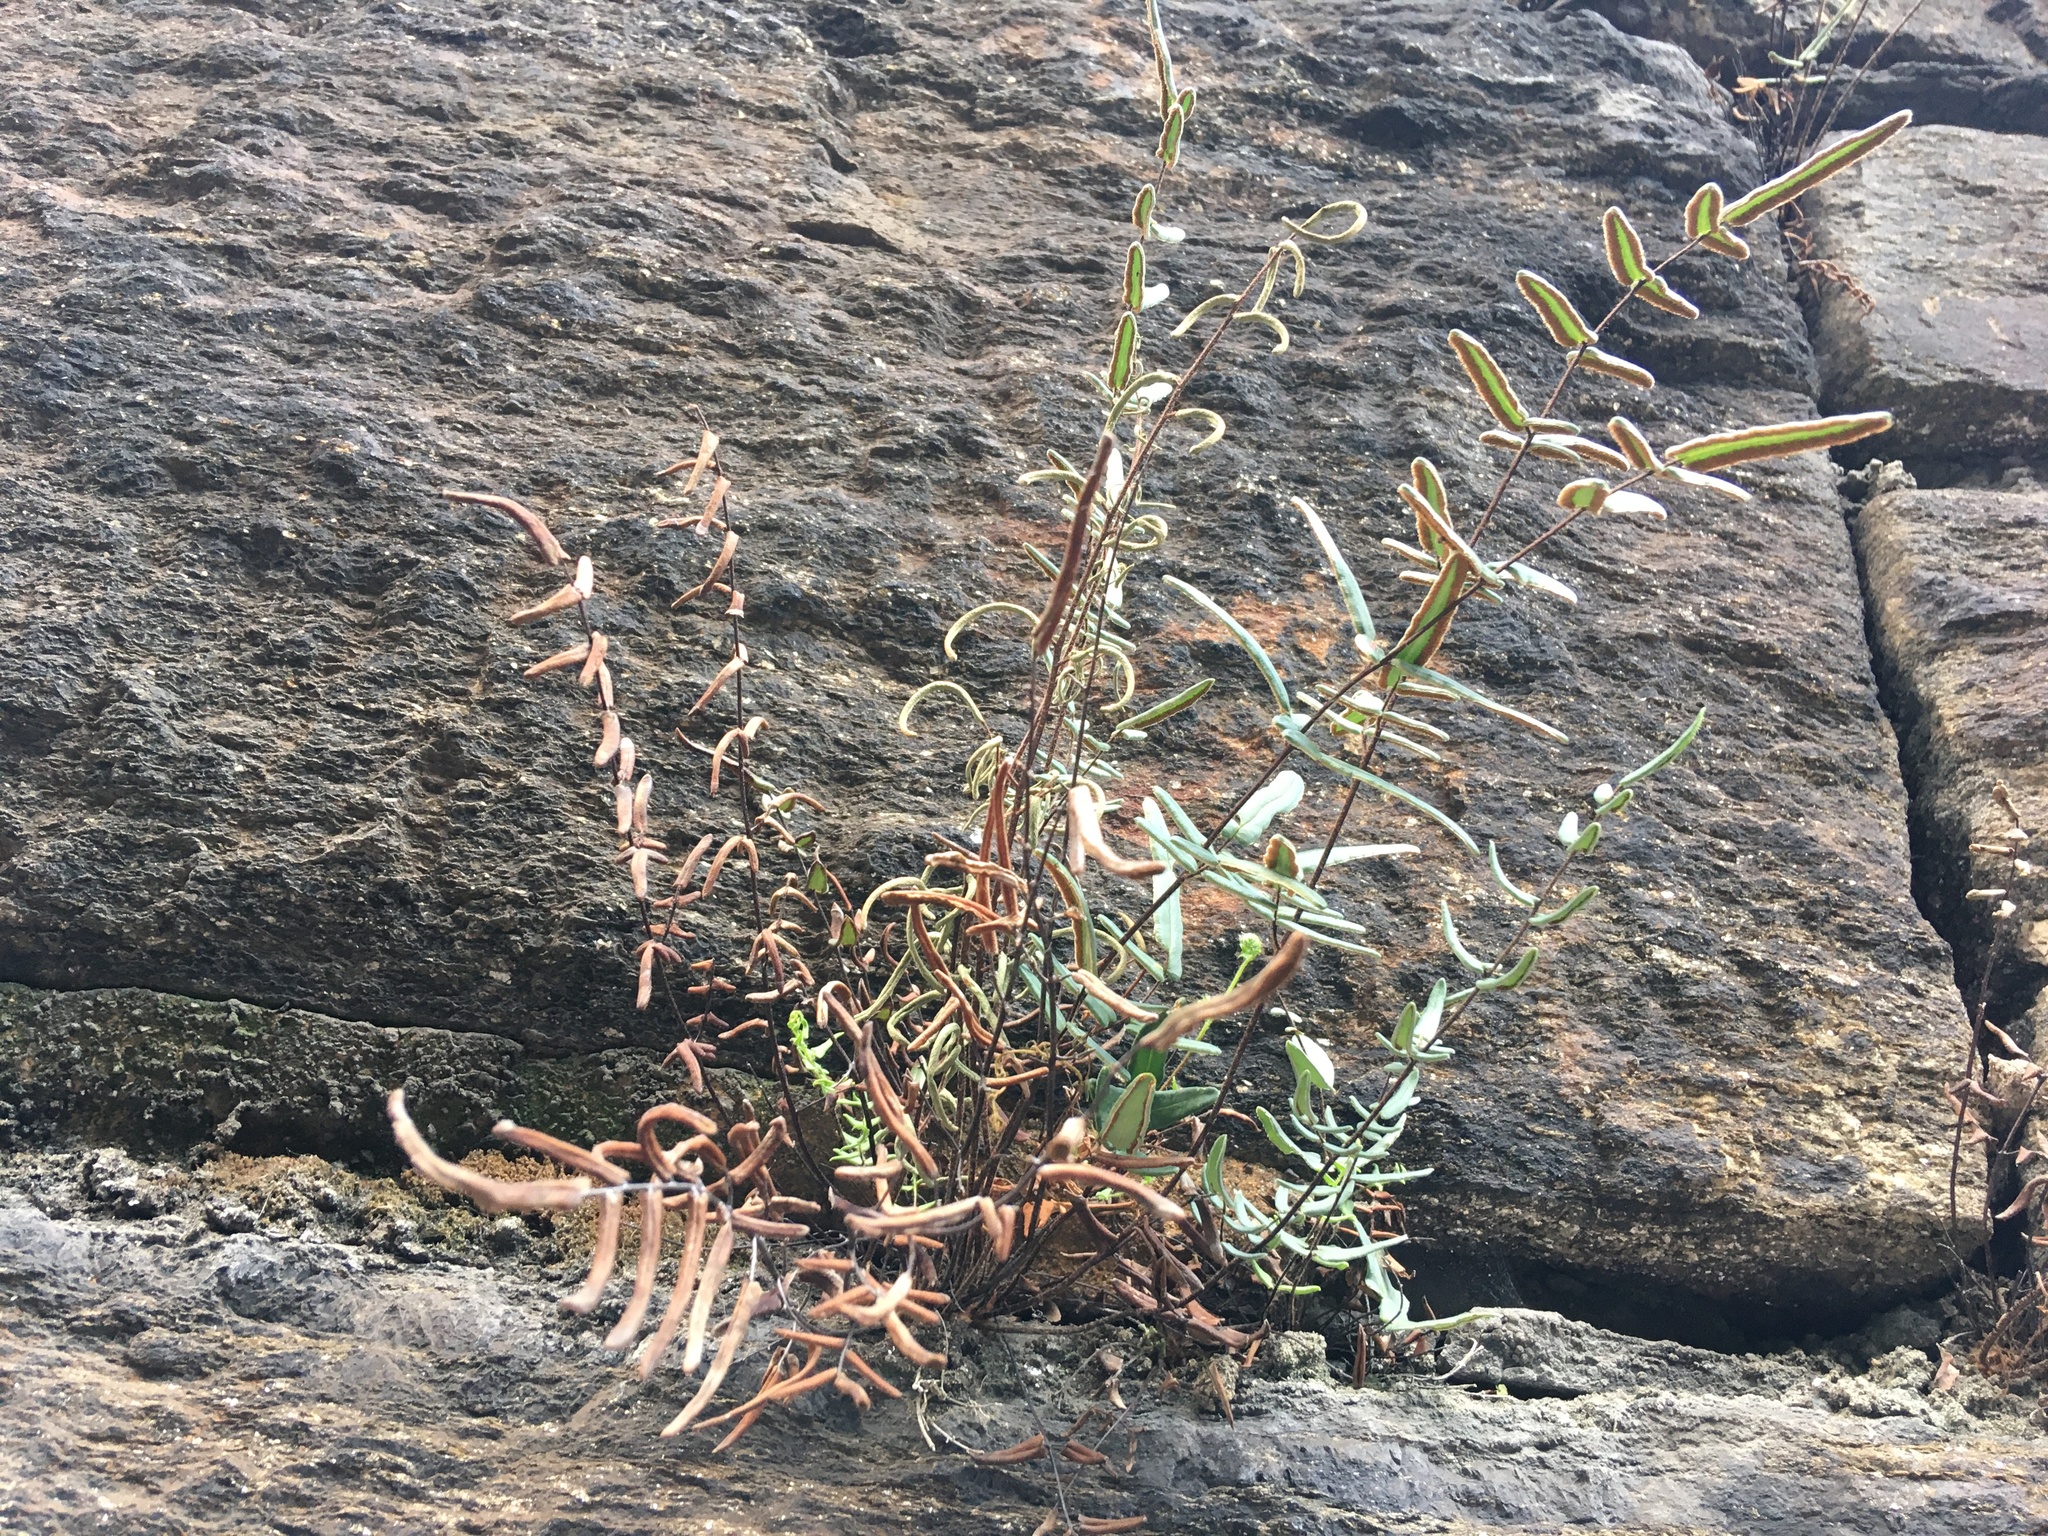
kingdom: Plantae
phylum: Tracheophyta
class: Polypodiopsida
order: Polypodiales
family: Pteridaceae
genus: Pellaea
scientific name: Pellaea atropurpurea
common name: Hairy cliffbrake
